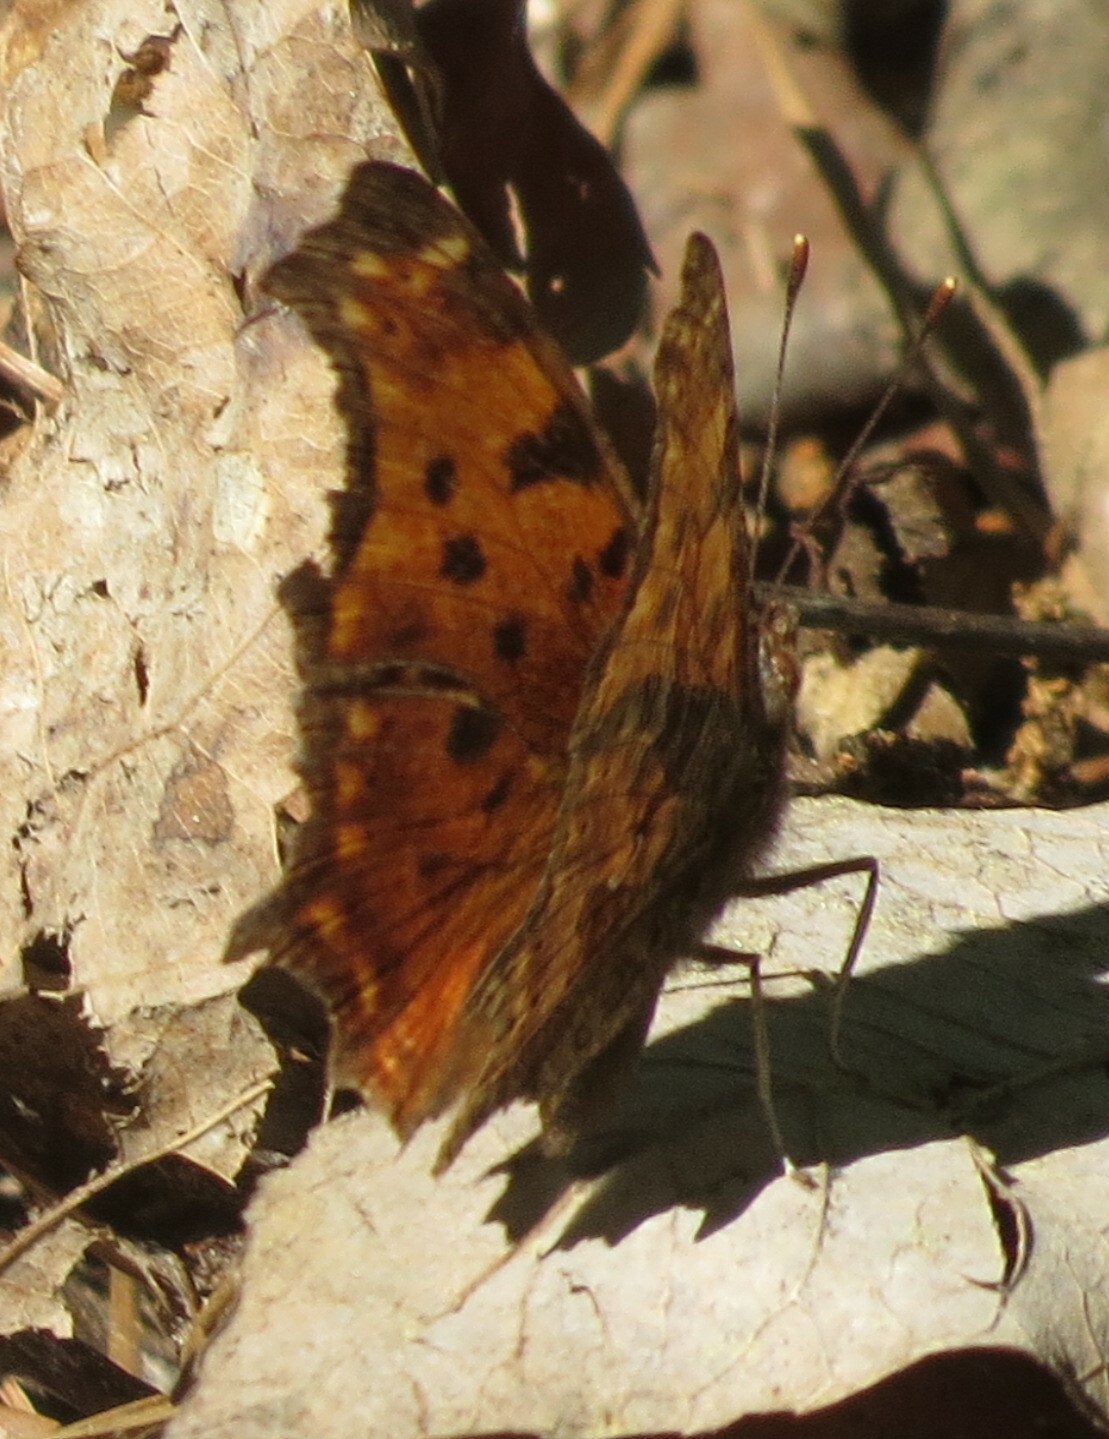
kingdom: Animalia
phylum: Arthropoda
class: Insecta
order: Lepidoptera
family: Nymphalidae
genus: Polygonia
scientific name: Polygonia comma
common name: Eastern comma
